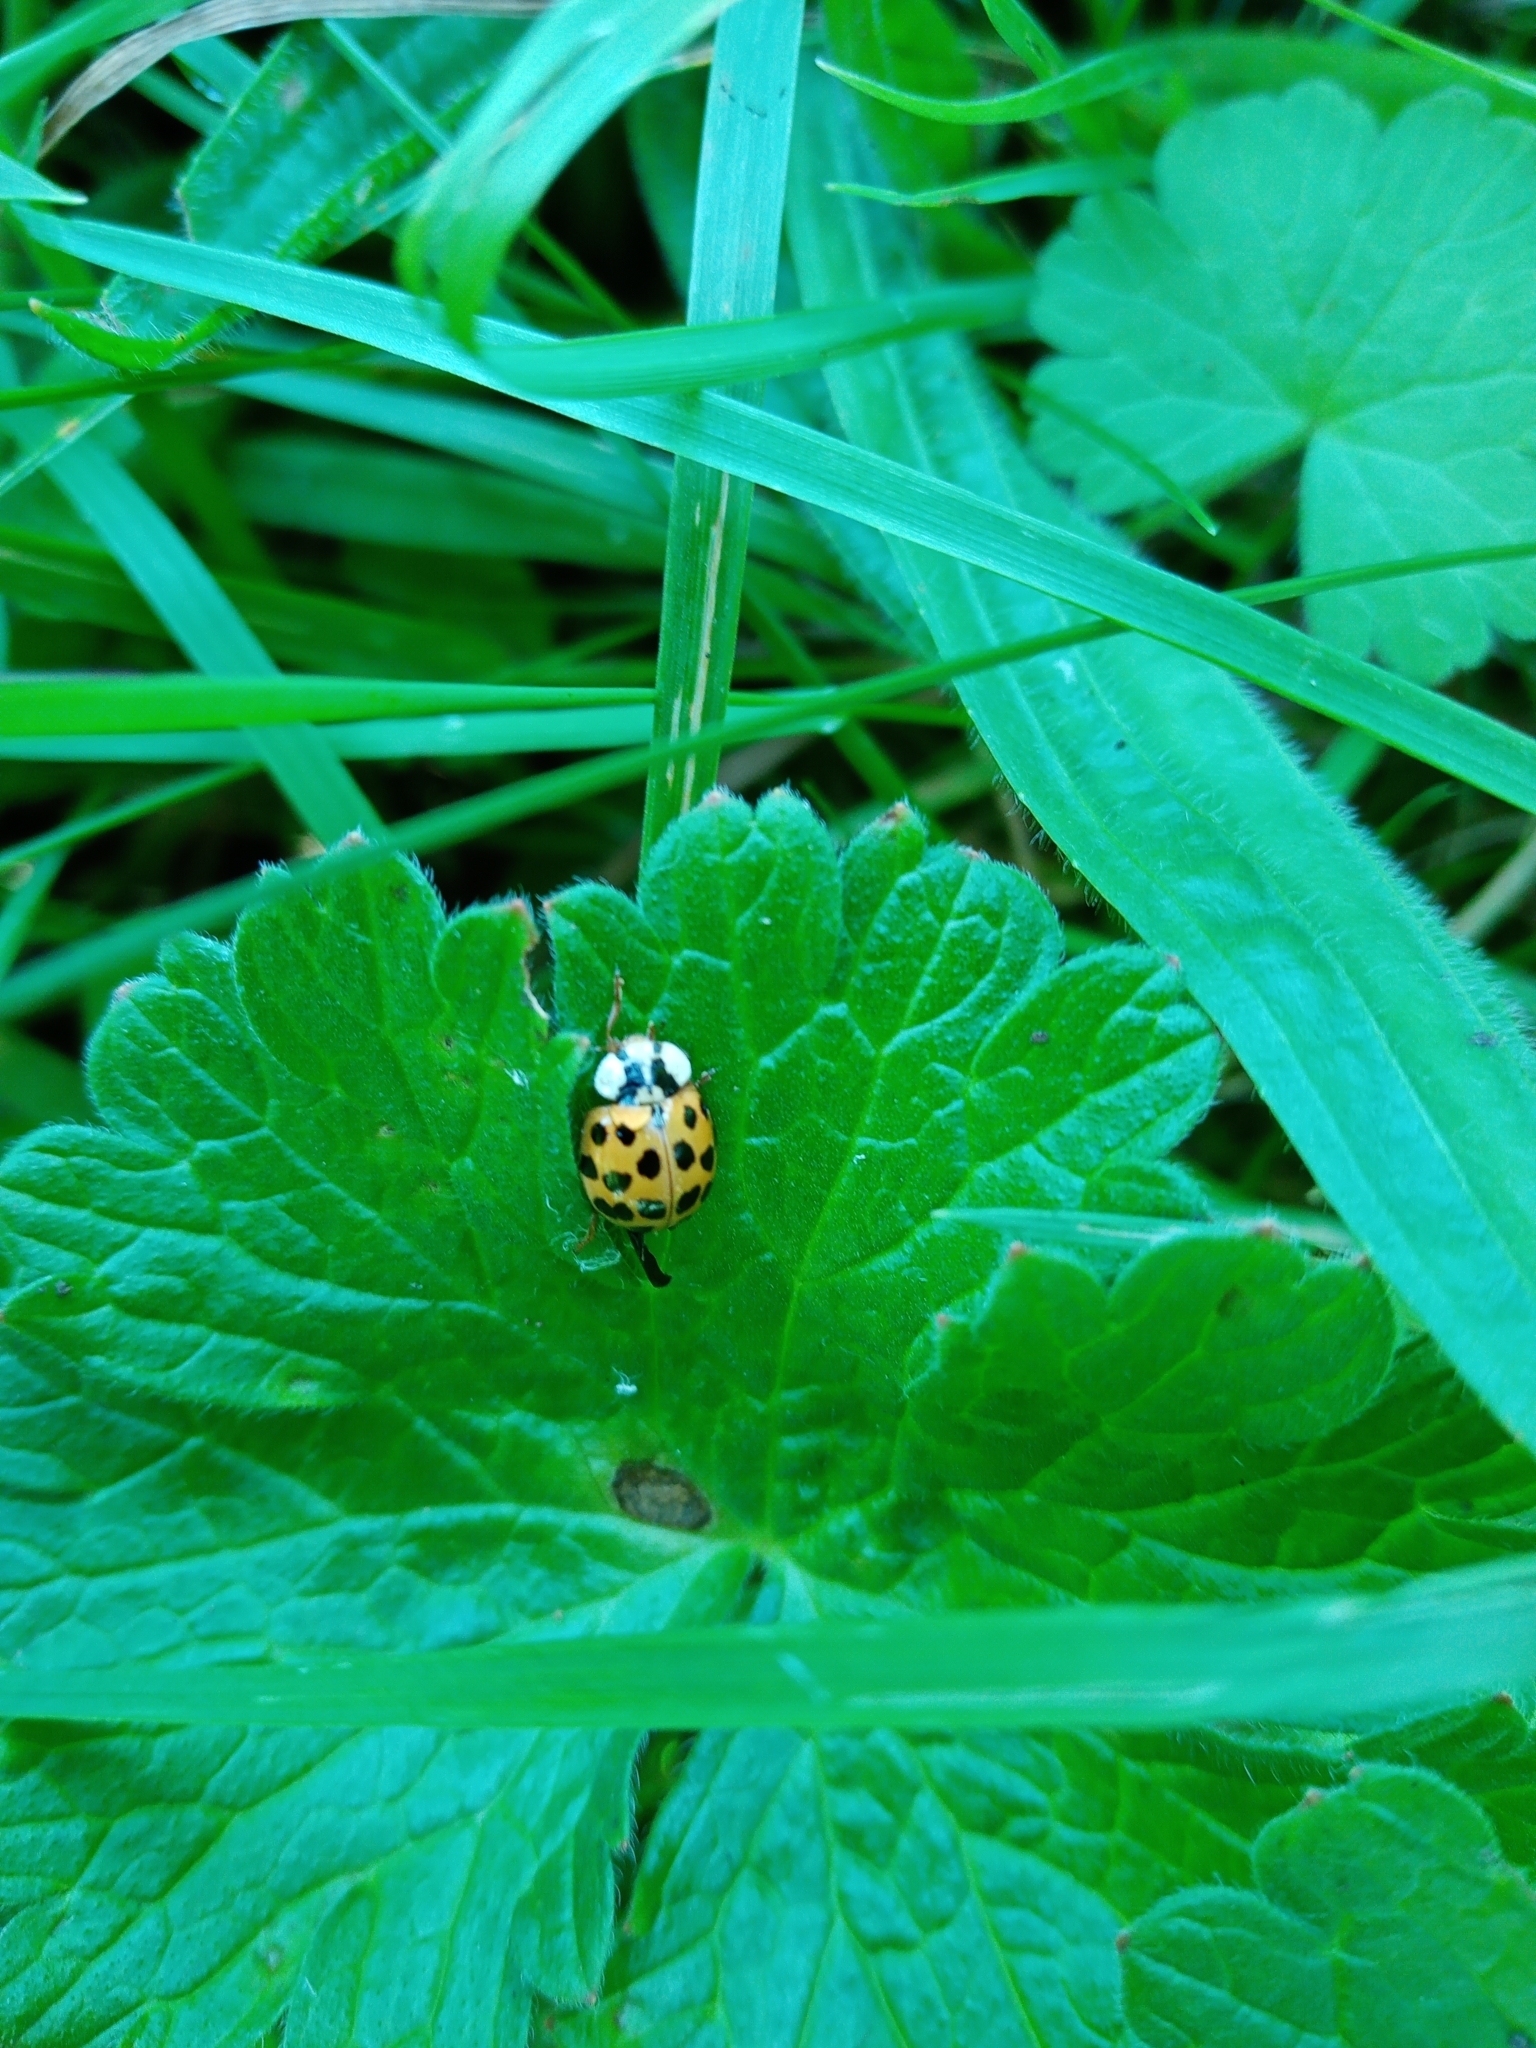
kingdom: Animalia
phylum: Arthropoda
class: Insecta
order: Coleoptera
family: Coccinellidae
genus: Harmonia
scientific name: Harmonia axyridis
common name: Harlequin ladybird
